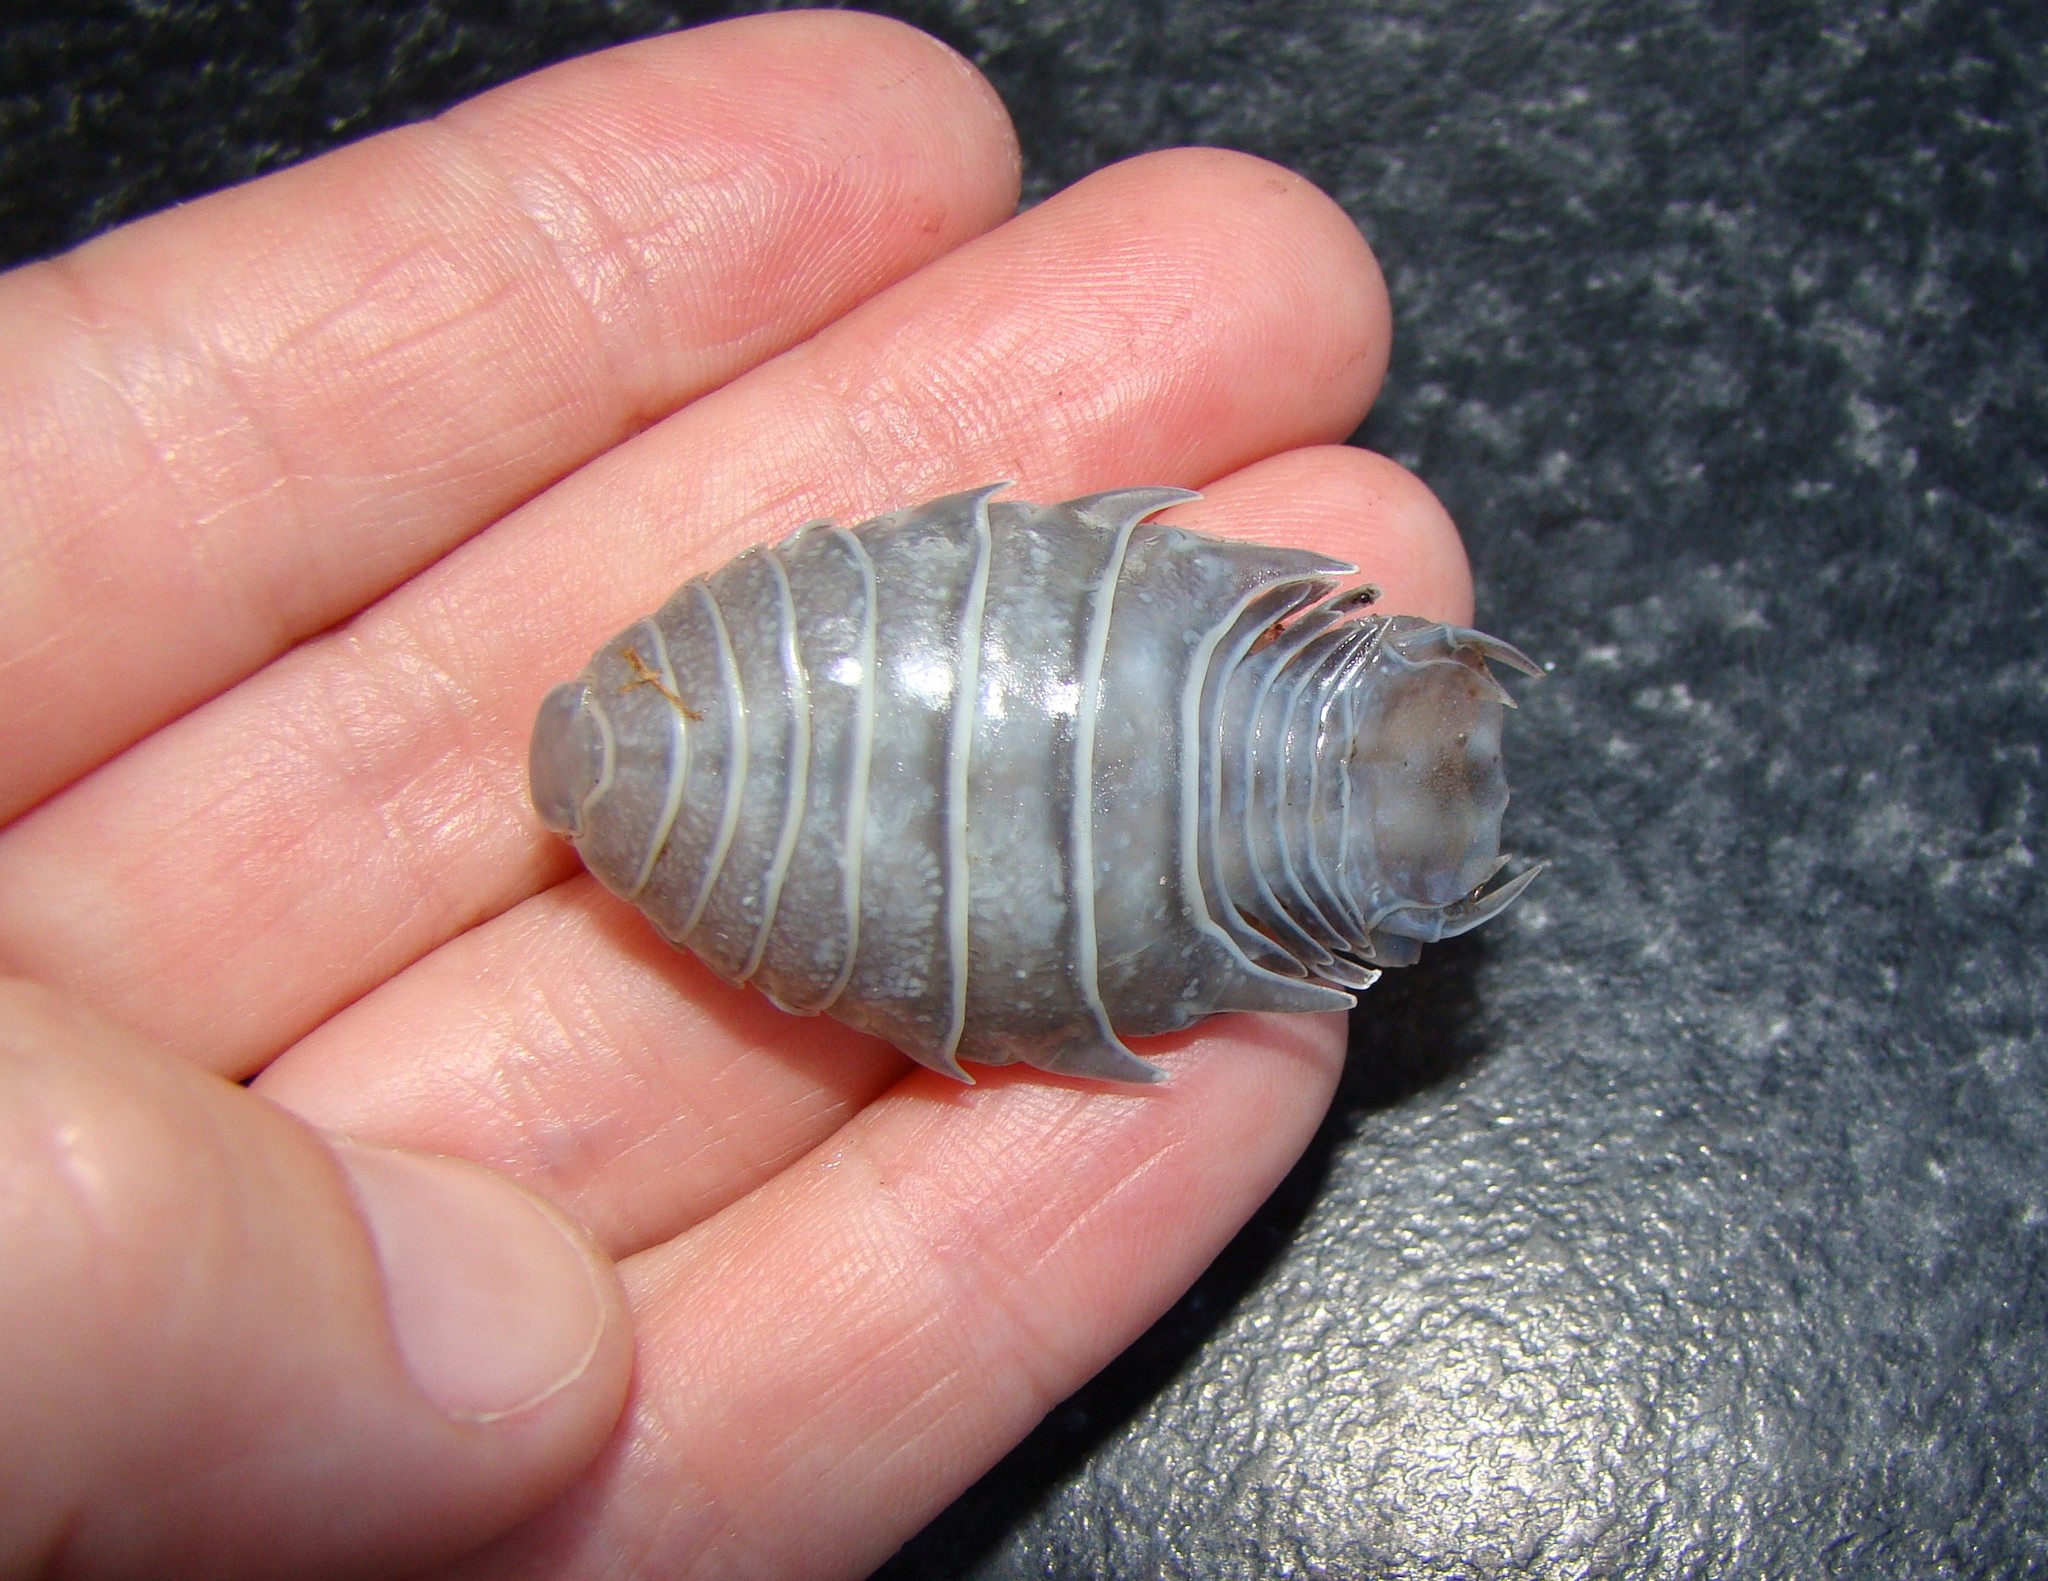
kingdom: Animalia
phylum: Arthropoda
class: Malacostraca
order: Isopoda
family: Cymothoidae
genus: Nerocila
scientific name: Nerocila orbignyi
